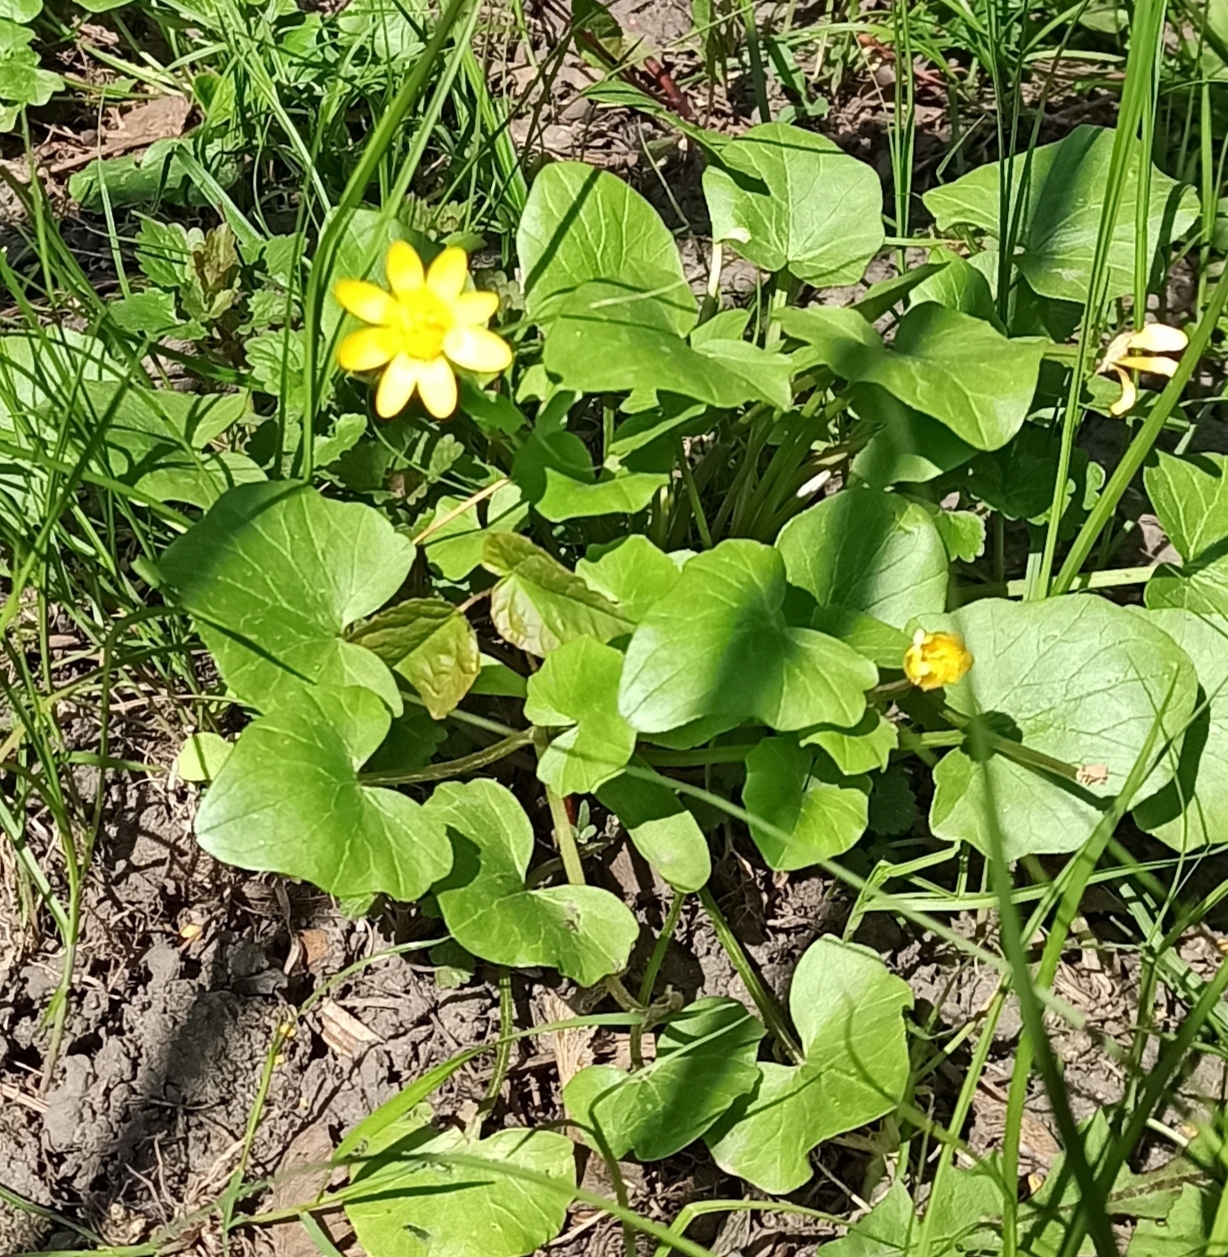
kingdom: Plantae
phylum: Tracheophyta
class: Magnoliopsida
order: Ranunculales
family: Ranunculaceae
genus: Ficaria
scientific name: Ficaria verna
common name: Lesser celandine
